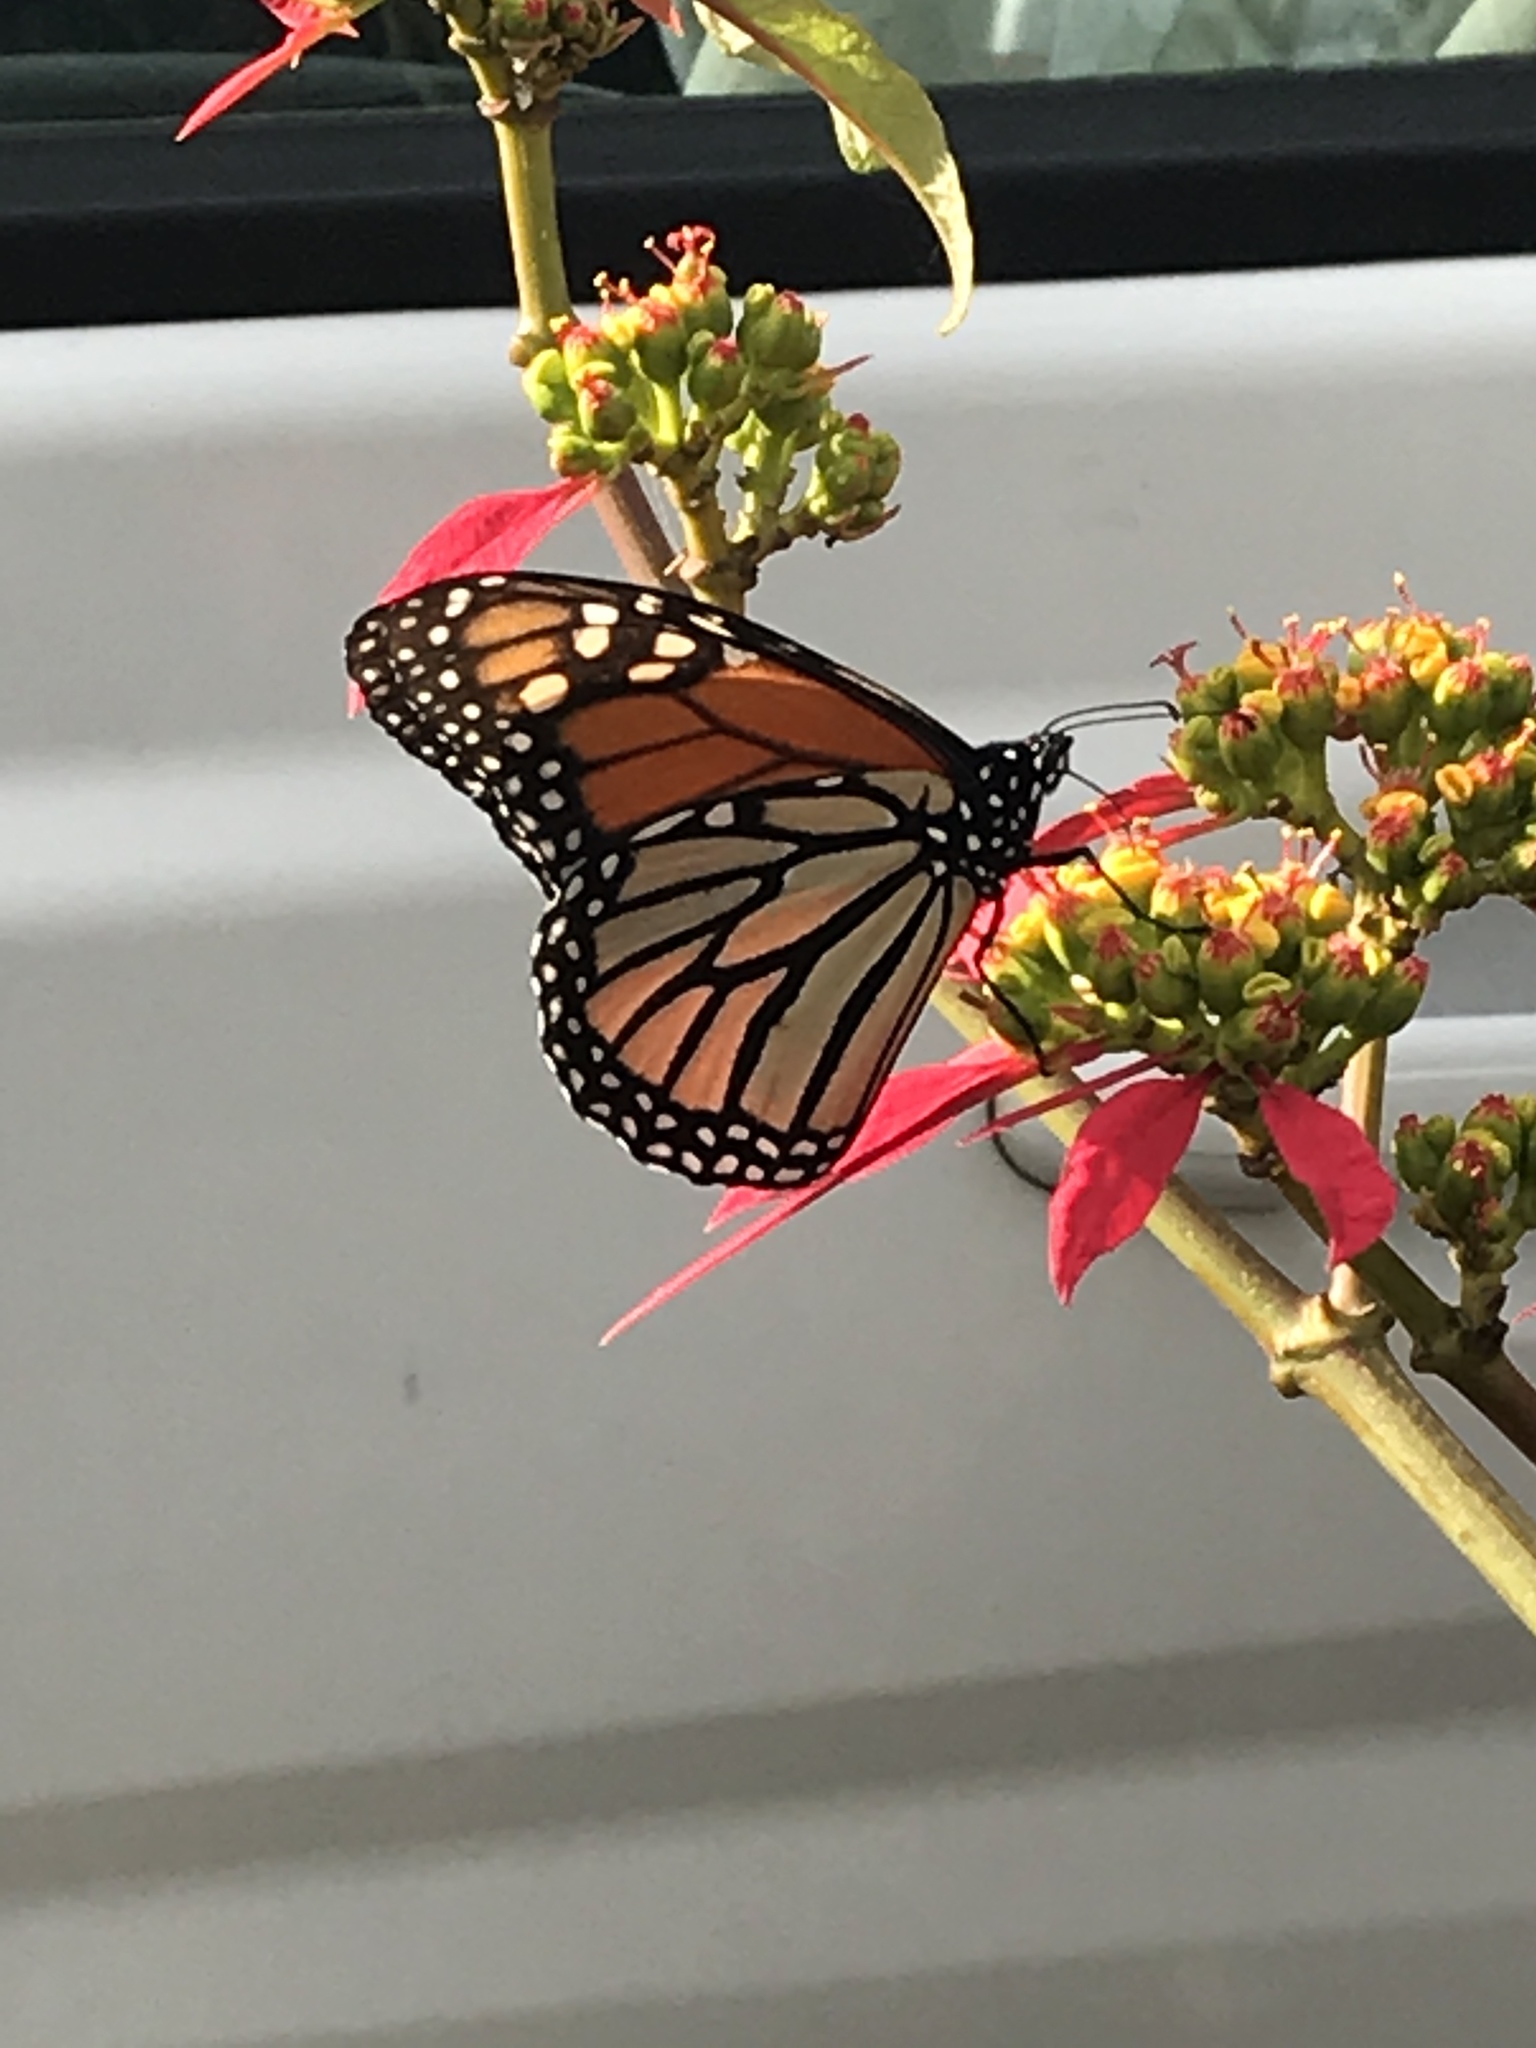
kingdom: Animalia
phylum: Arthropoda
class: Insecta
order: Lepidoptera
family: Nymphalidae
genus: Danaus
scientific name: Danaus plexippus
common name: Monarch
